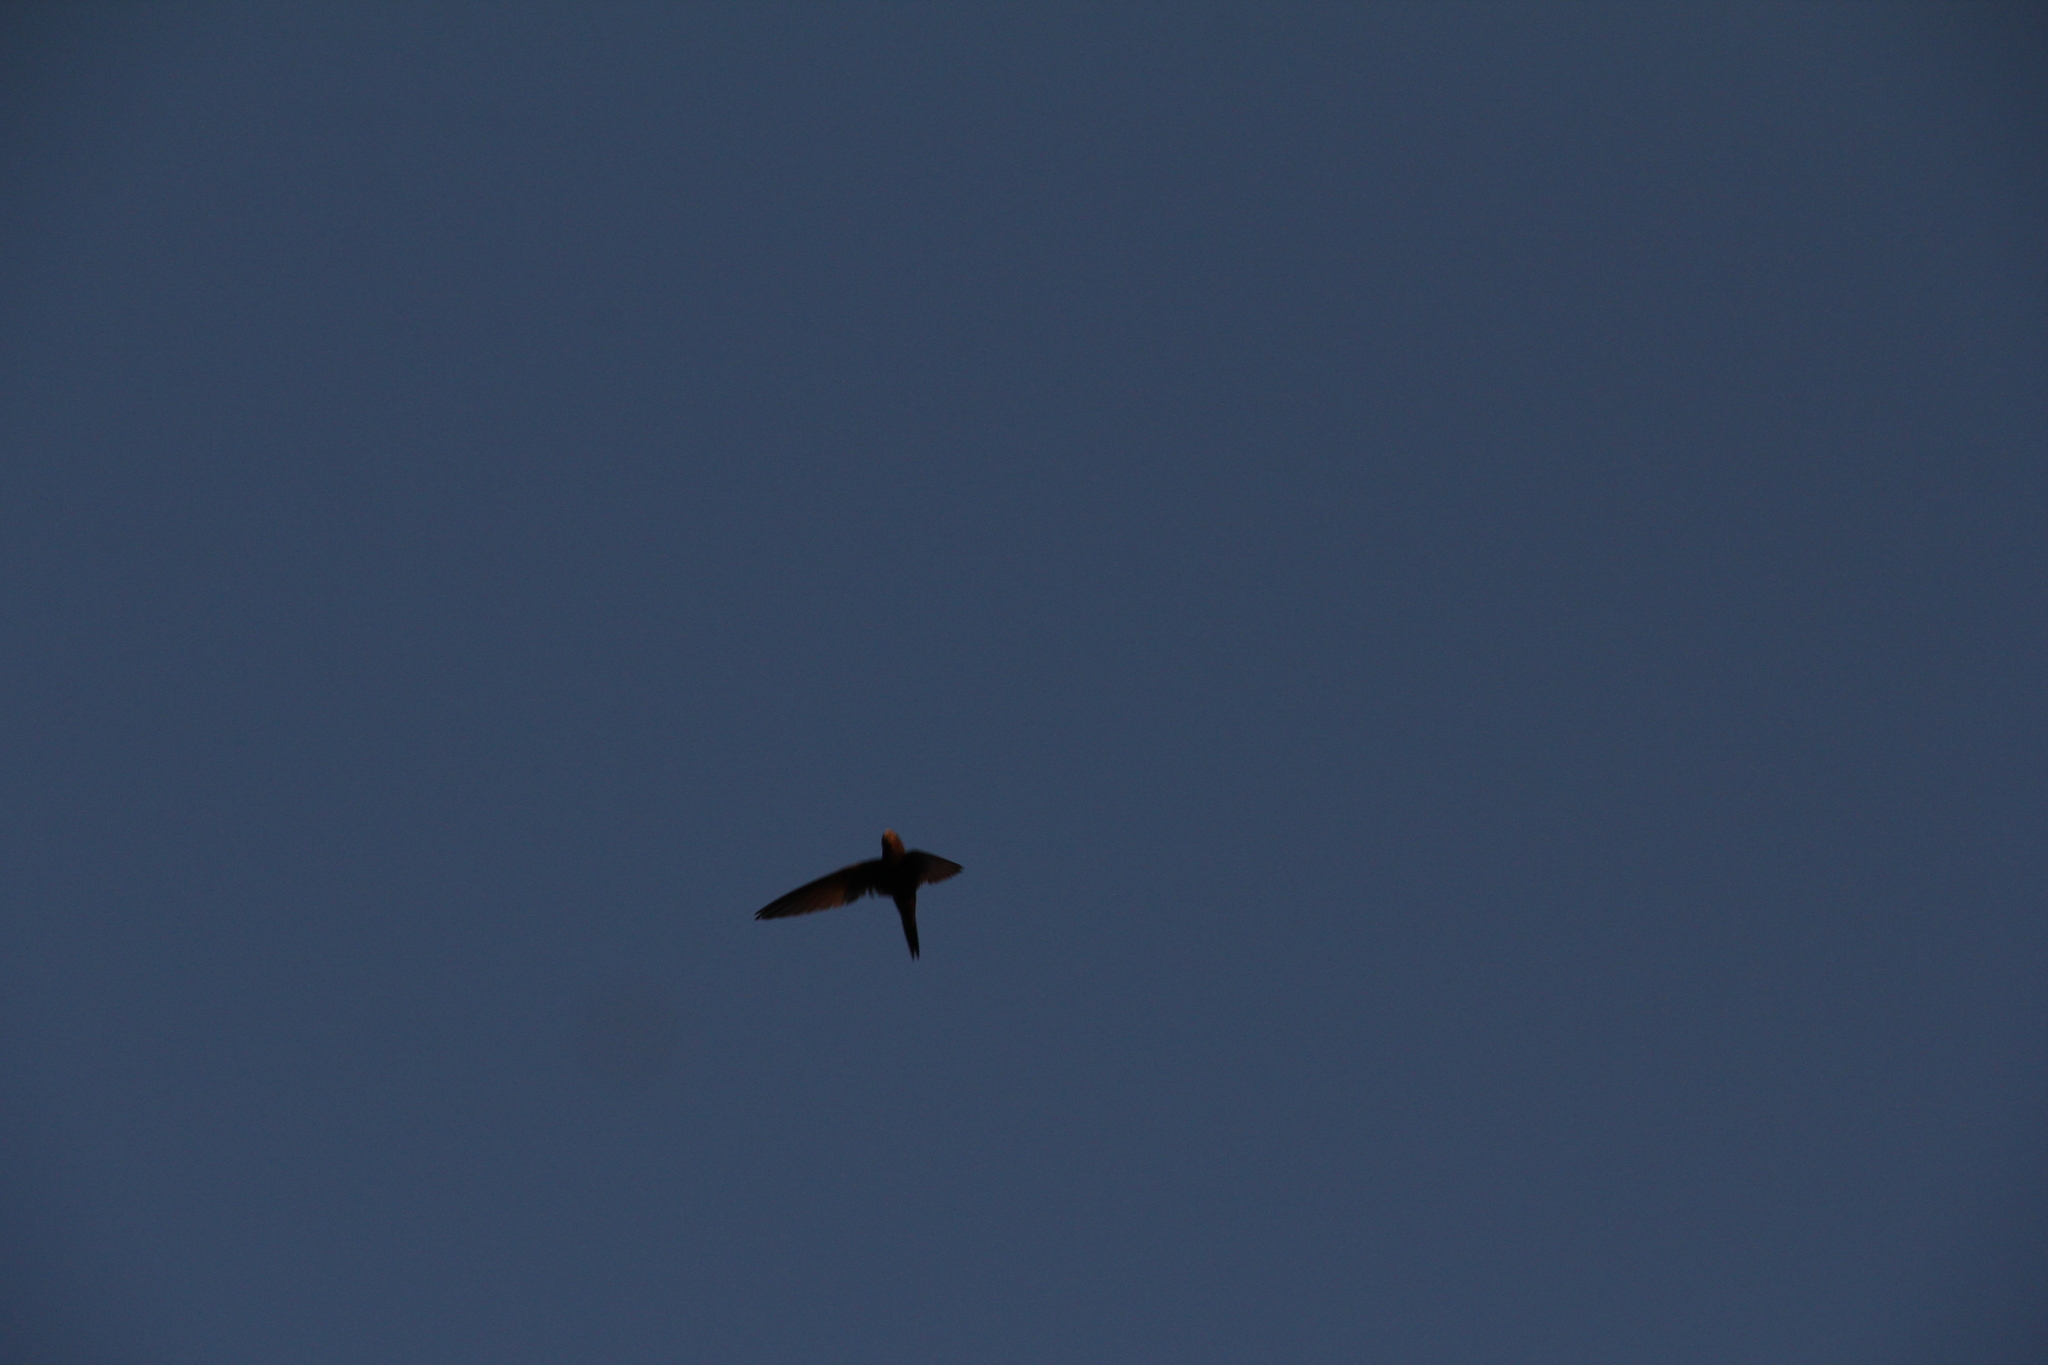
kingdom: Animalia
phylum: Chordata
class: Aves
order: Apodiformes
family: Apodidae
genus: Apus
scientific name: Apus apus
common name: Common swift
